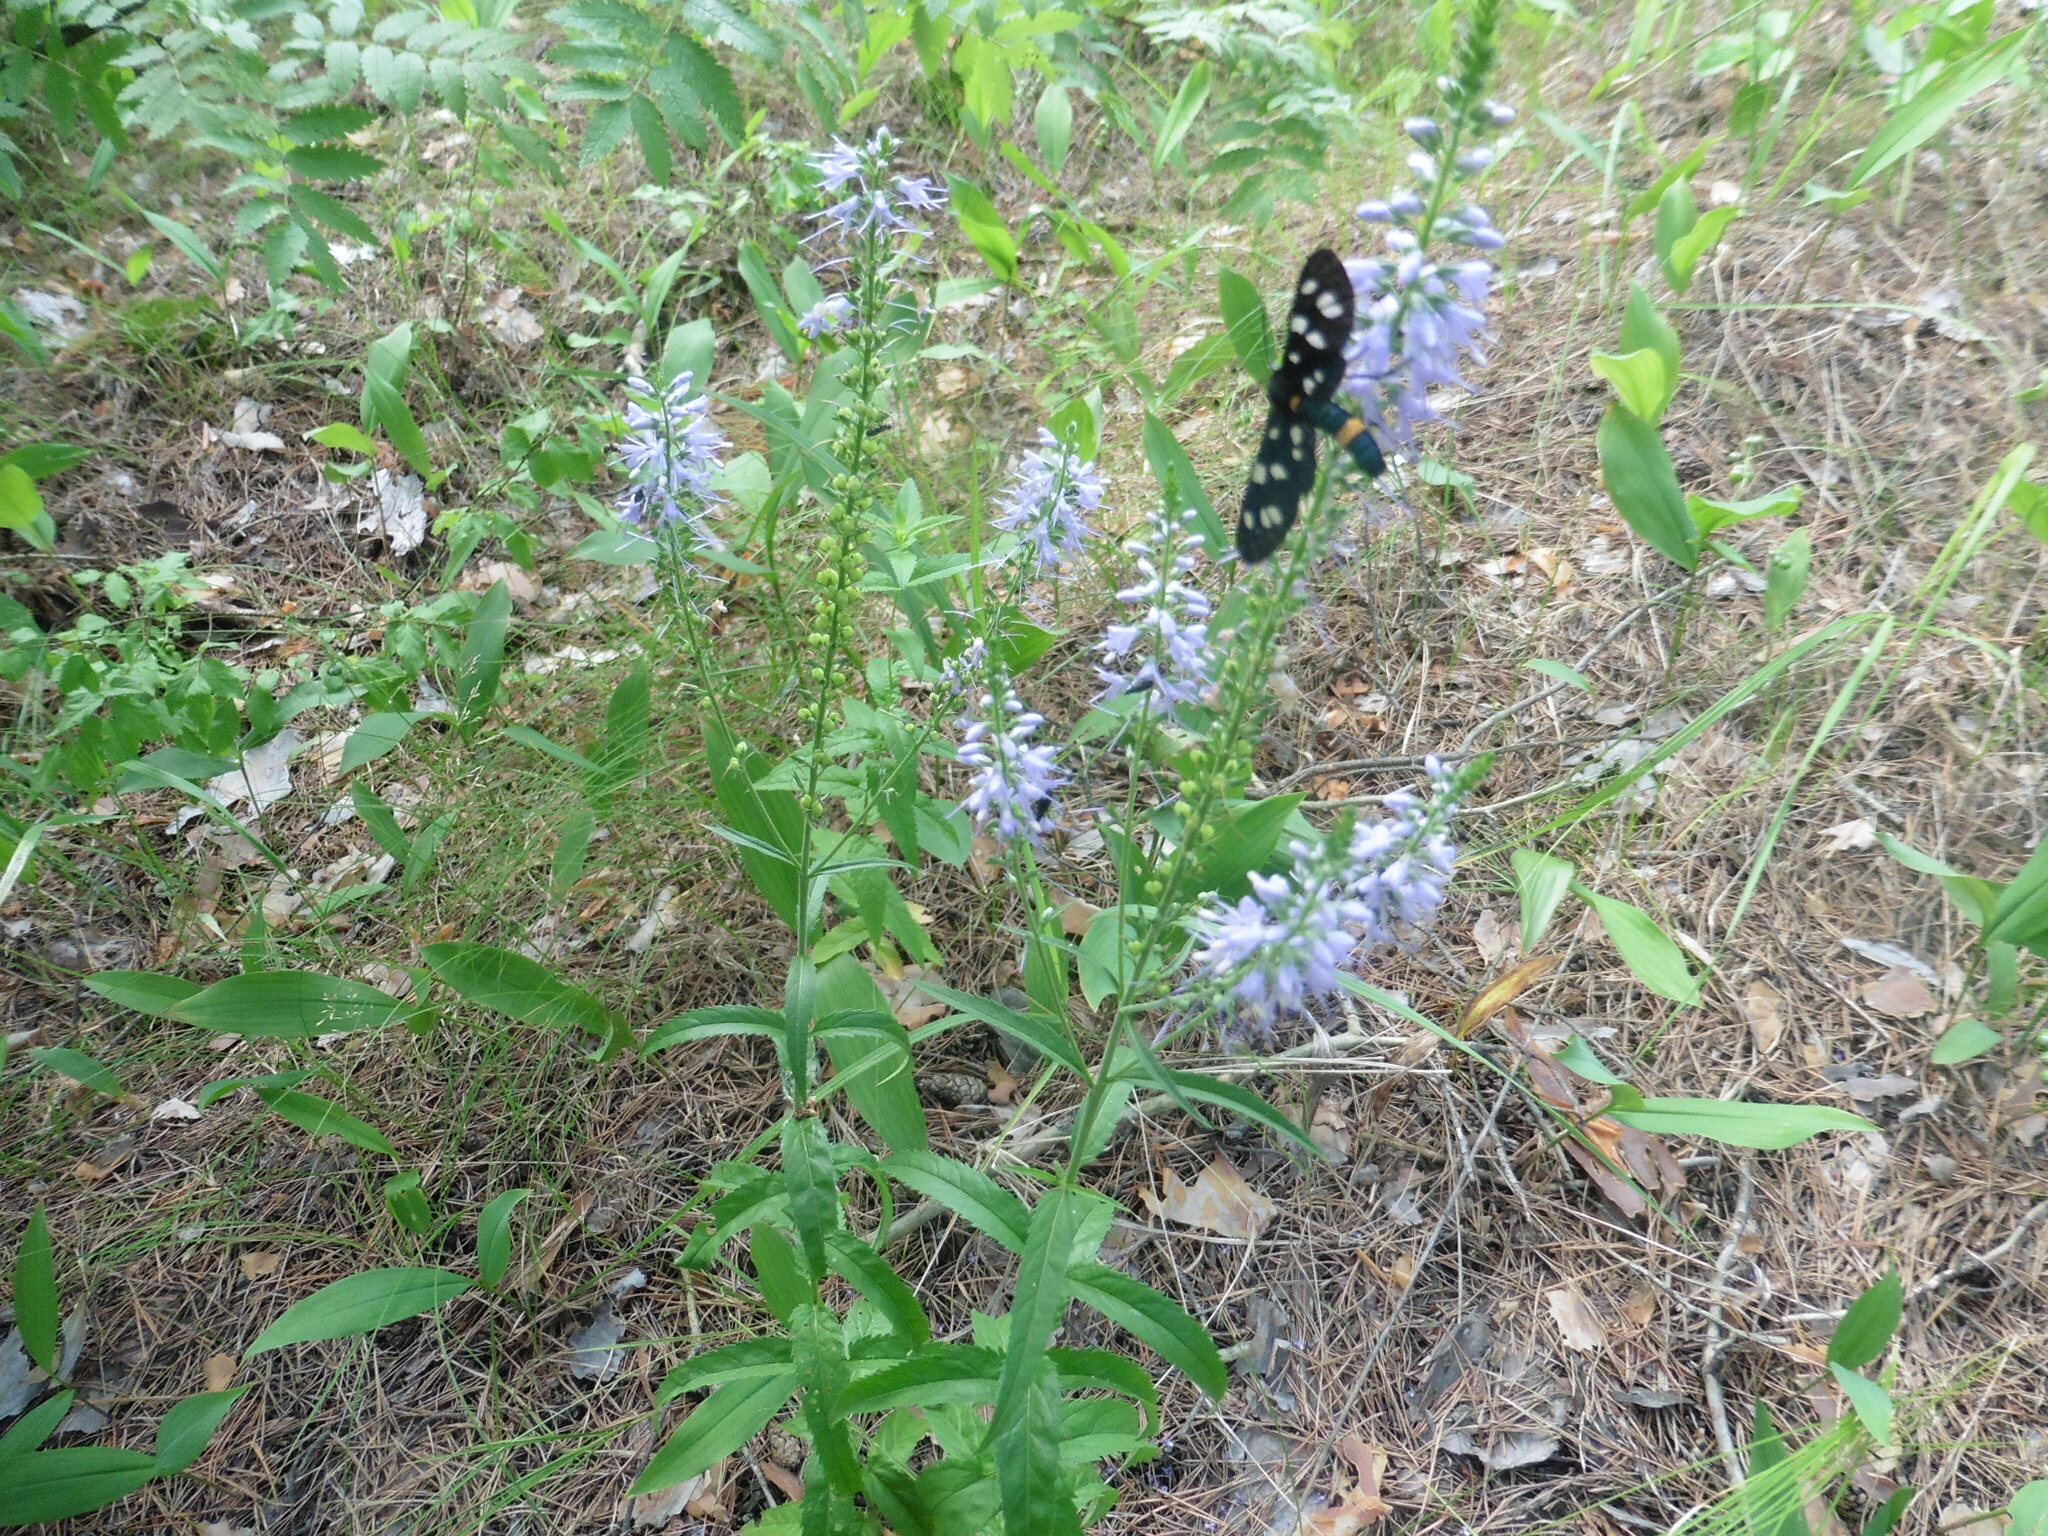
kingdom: Plantae
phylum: Tracheophyta
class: Magnoliopsida
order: Lamiales
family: Plantaginaceae
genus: Veronica
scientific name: Veronica longifolia
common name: Garden speedwell
